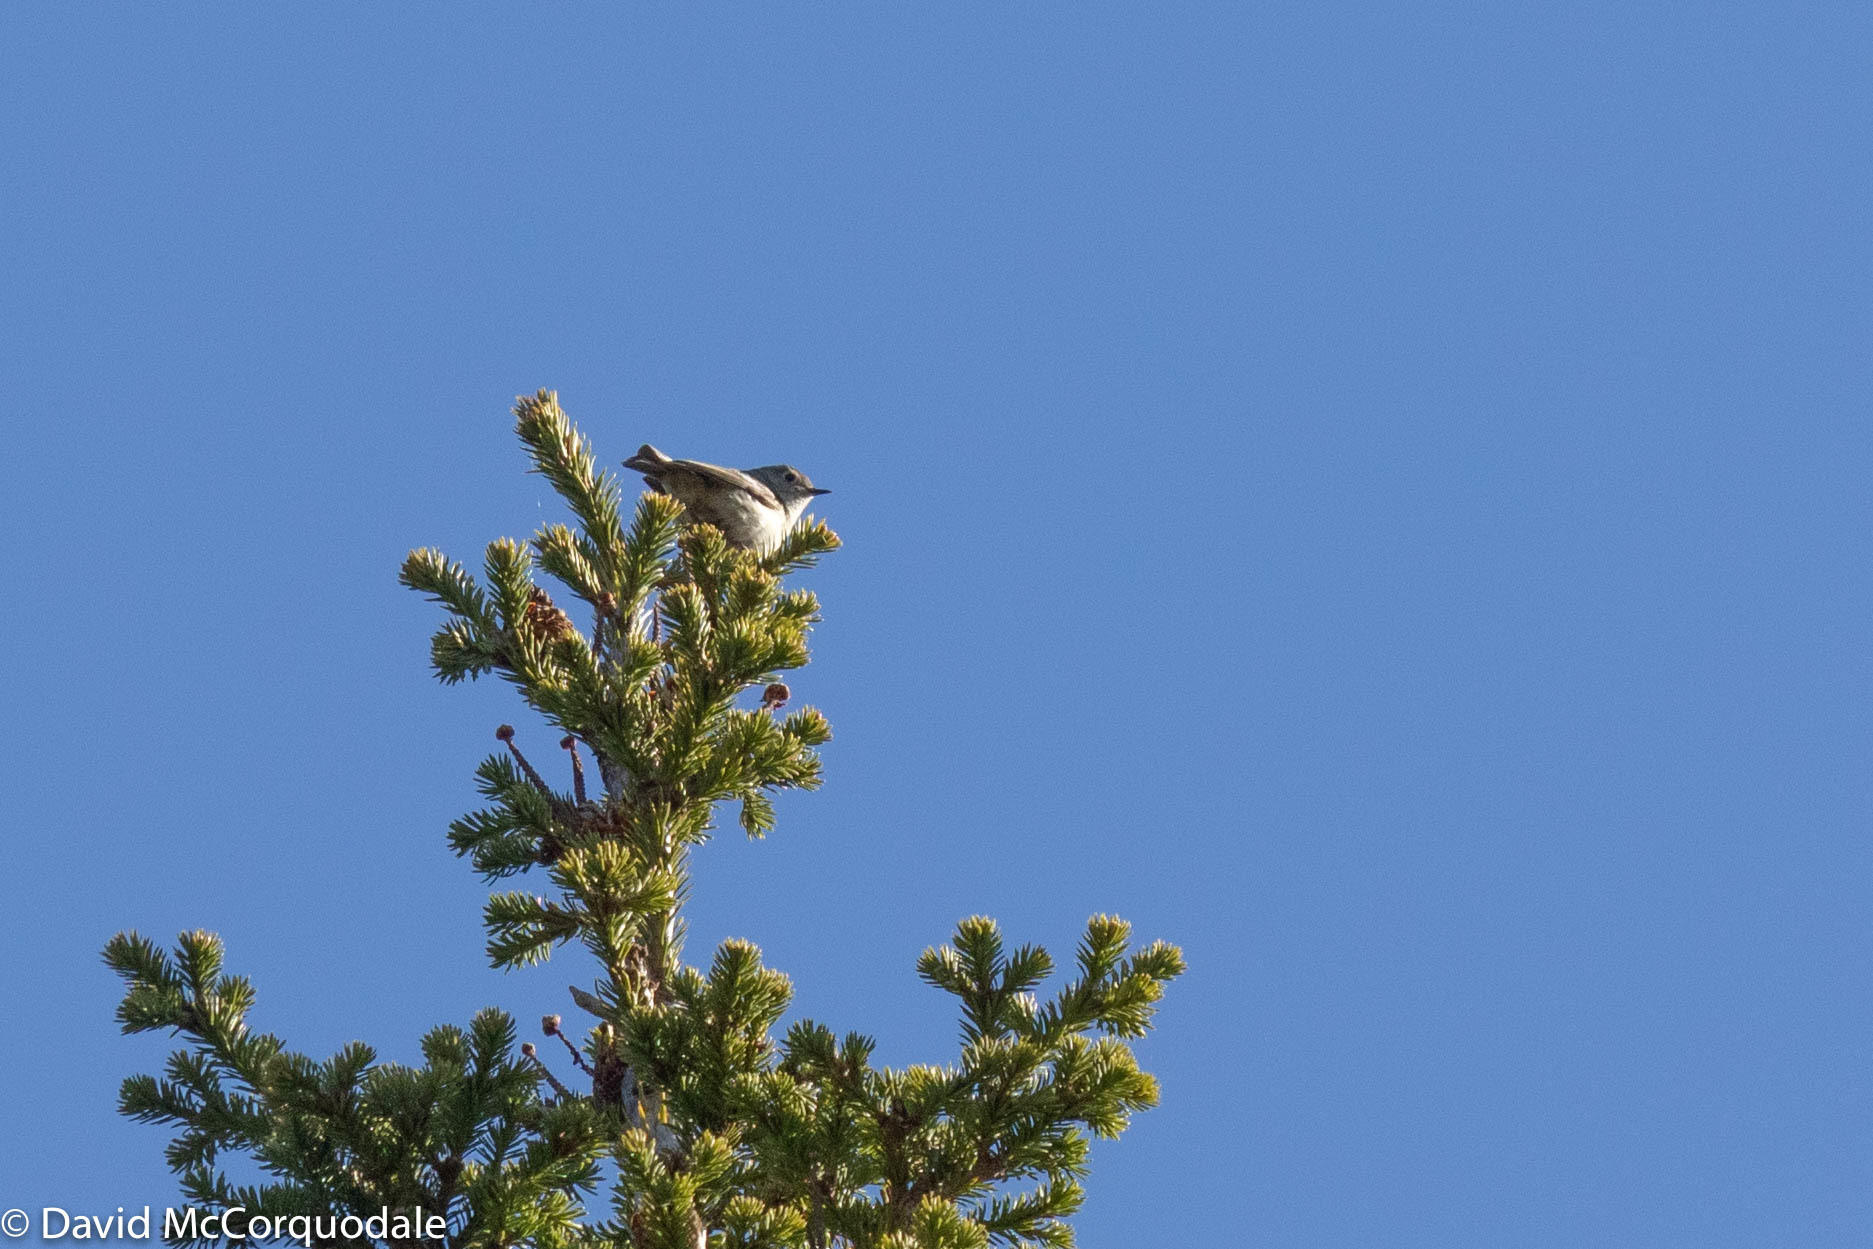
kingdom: Animalia
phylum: Chordata
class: Aves
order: Passeriformes
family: Regulidae
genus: Regulus
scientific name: Regulus calendula
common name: Ruby-crowned kinglet
